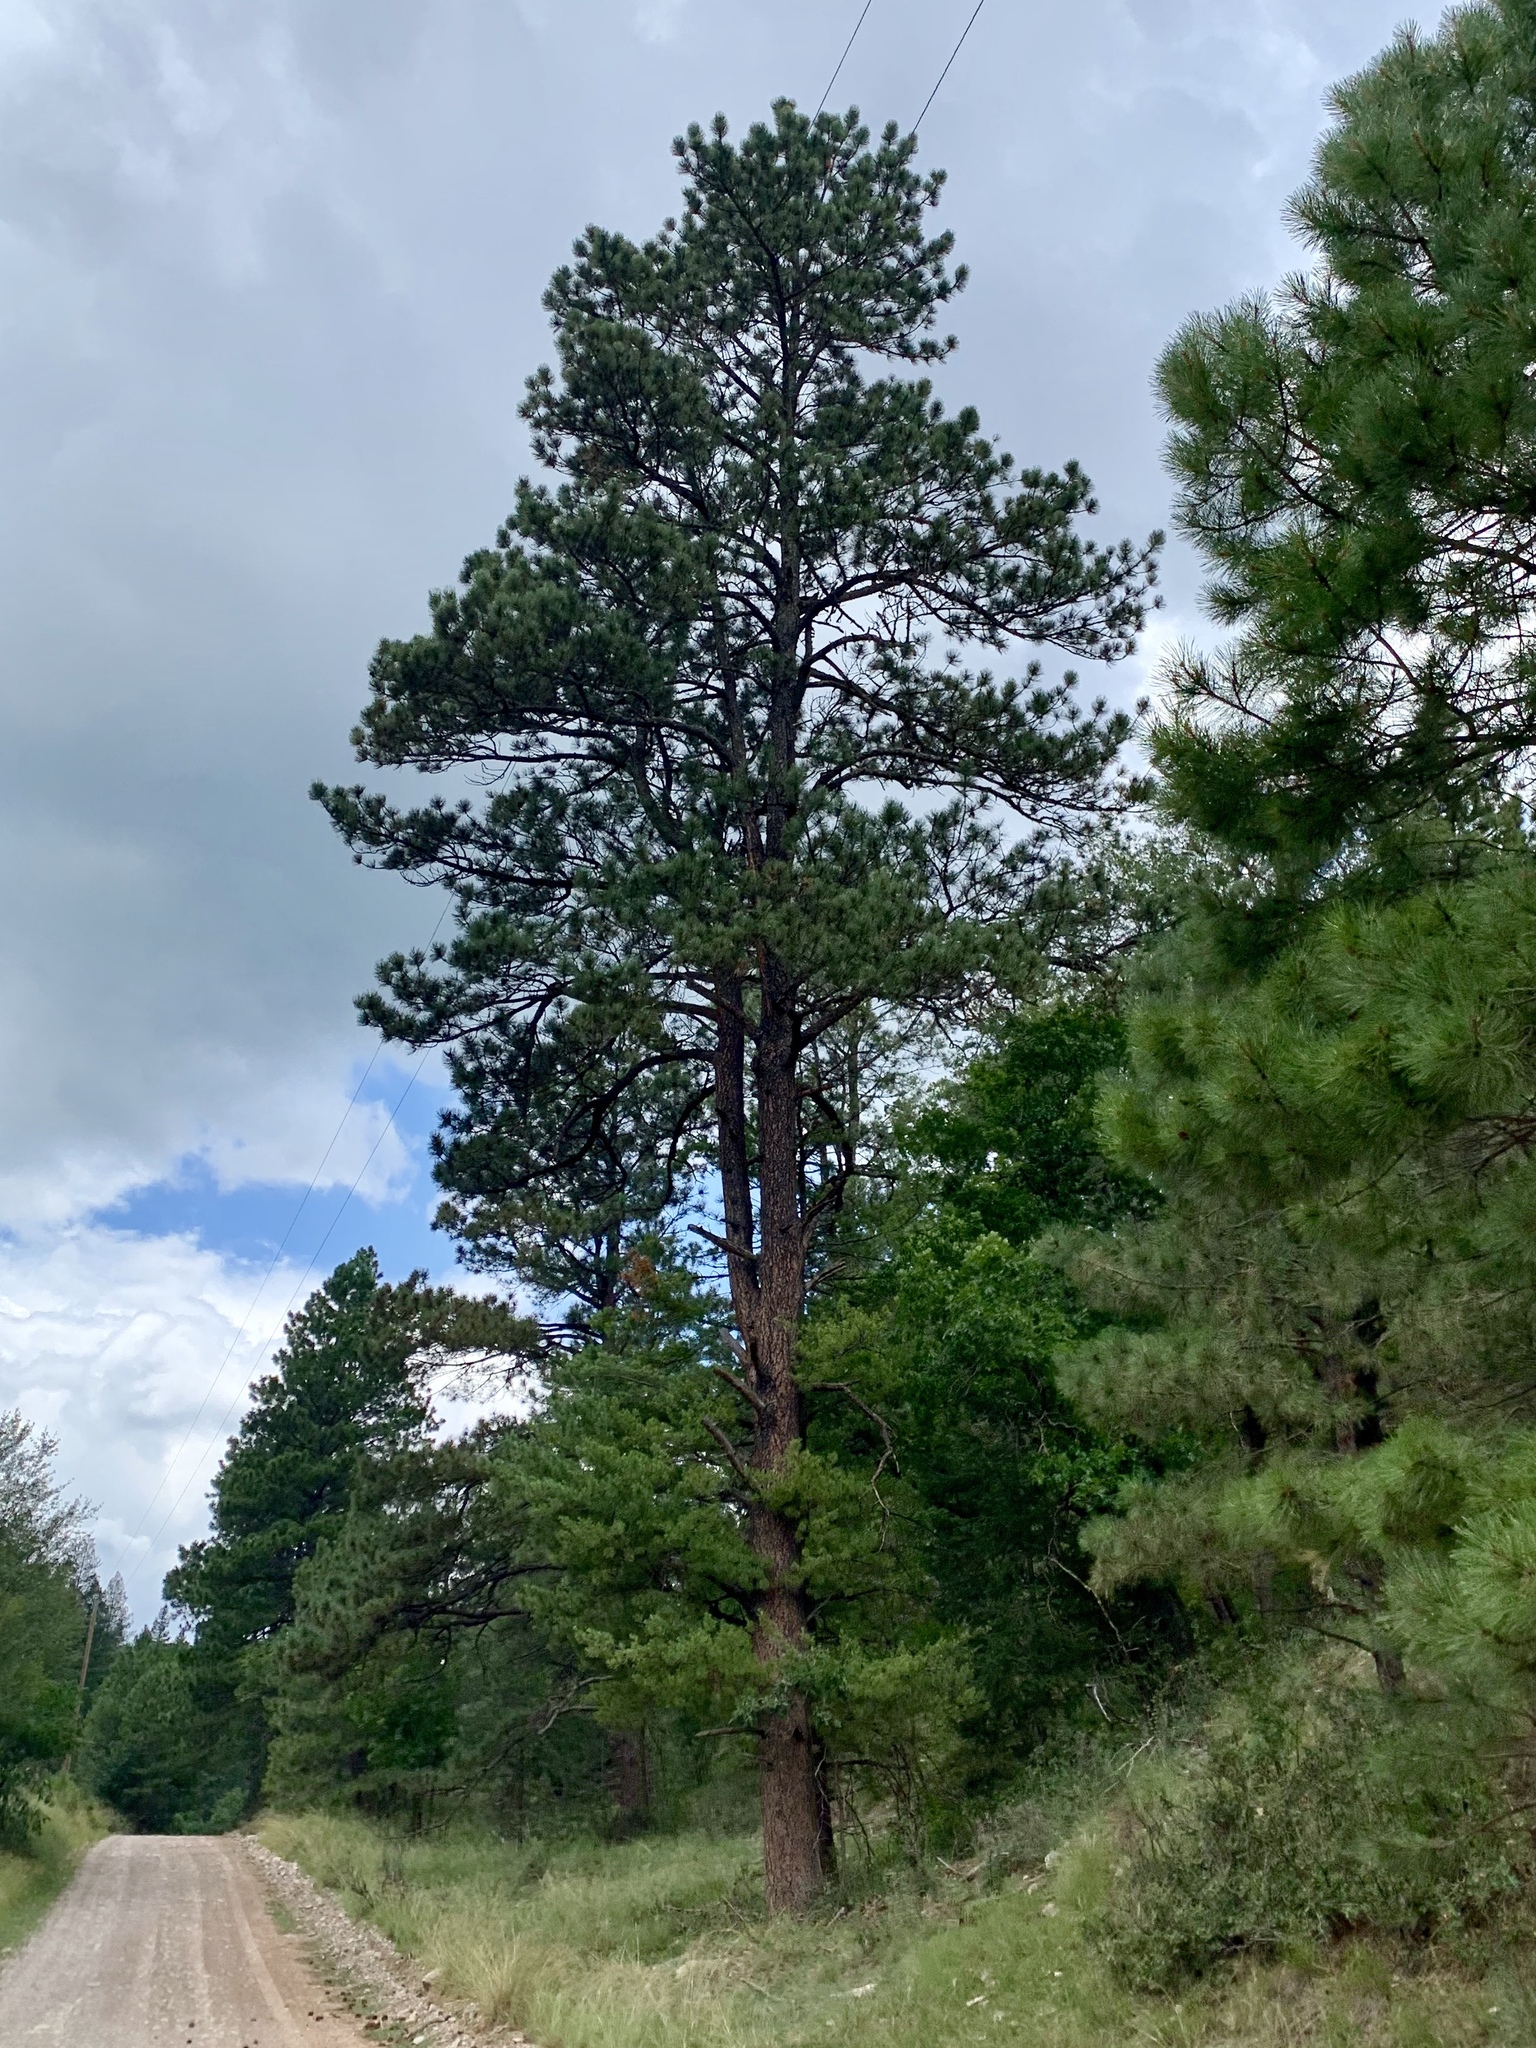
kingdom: Plantae
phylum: Tracheophyta
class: Pinopsida
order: Pinales
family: Pinaceae
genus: Pinus
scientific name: Pinus ponderosa
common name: Western yellow-pine
